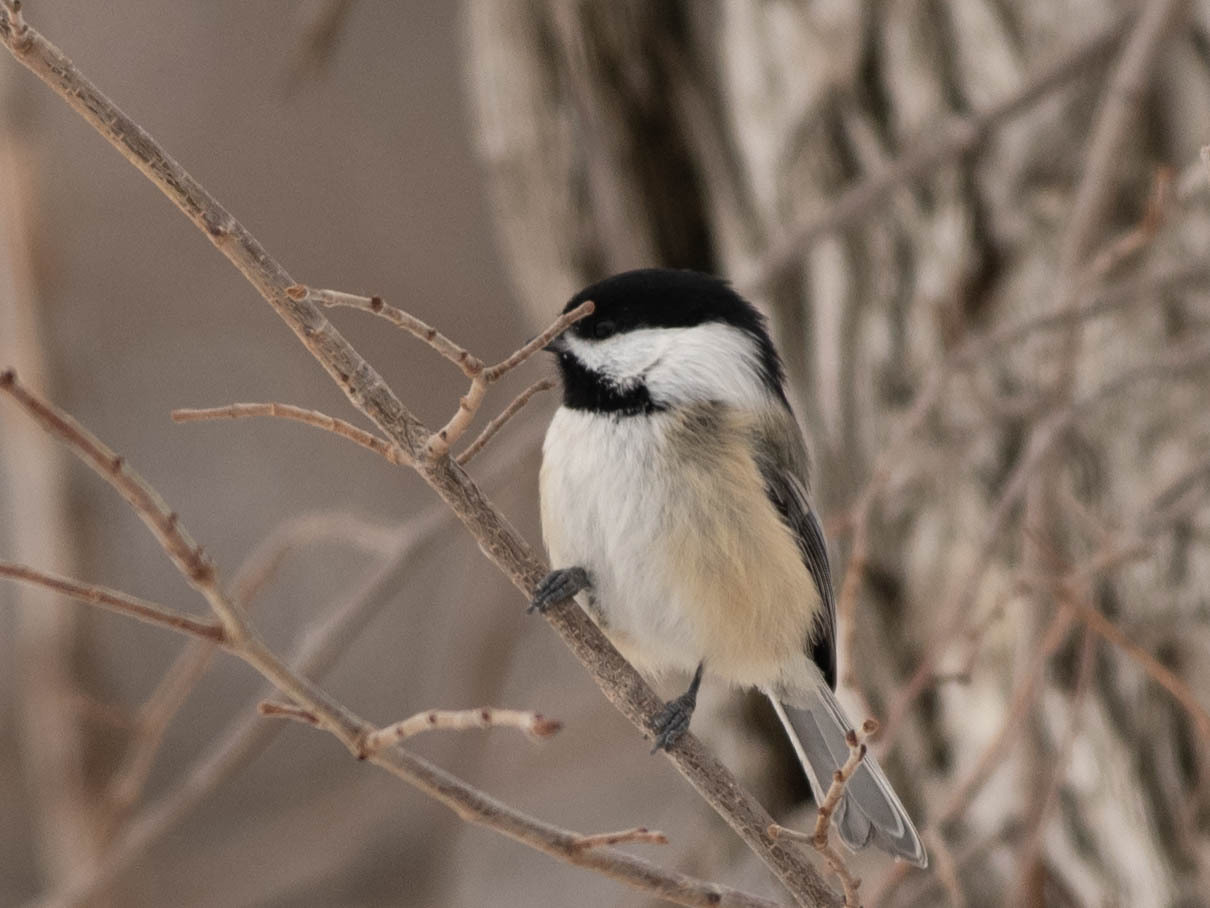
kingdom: Animalia
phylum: Chordata
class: Aves
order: Passeriformes
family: Paridae
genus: Poecile
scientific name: Poecile atricapillus
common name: Black-capped chickadee
